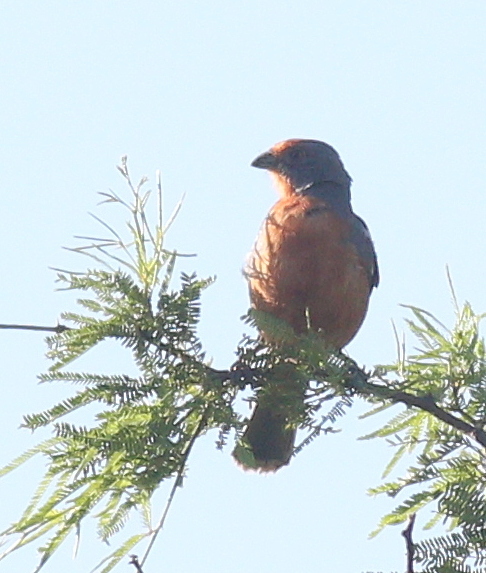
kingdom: Animalia
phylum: Chordata
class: Aves
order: Passeriformes
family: Cotingidae
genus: Phytotoma
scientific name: Phytotoma rutila
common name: White-tipped plantcutter
